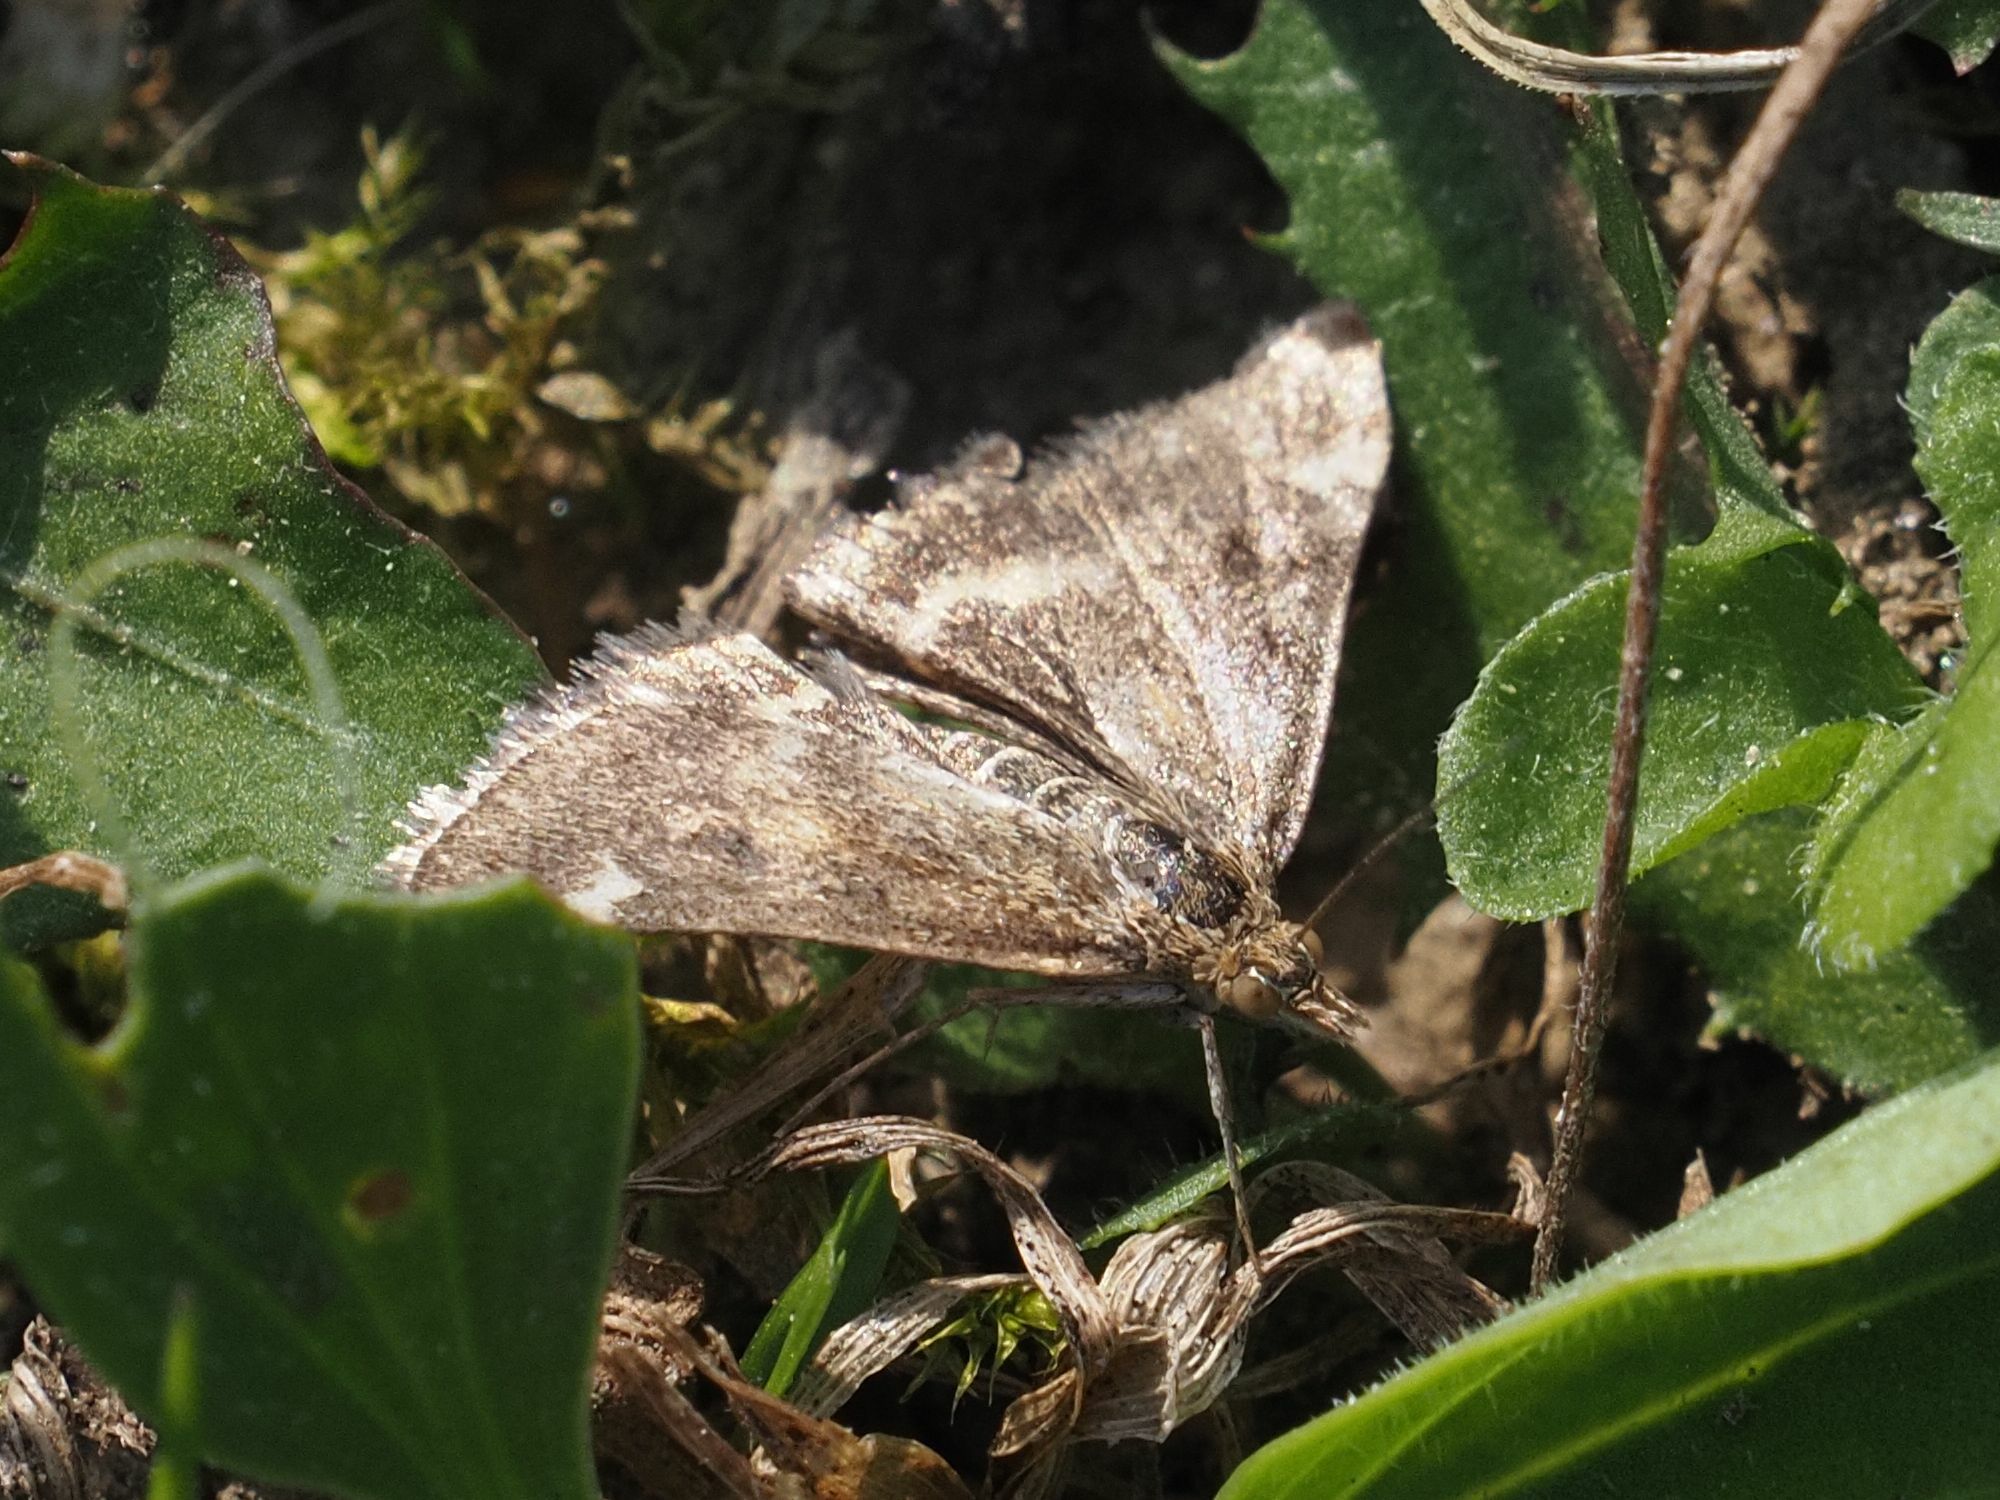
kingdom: Animalia
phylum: Arthropoda
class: Insecta
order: Lepidoptera
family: Crambidae
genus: Pyrausta
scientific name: Pyrausta despicata
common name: Straw-barred pearl
